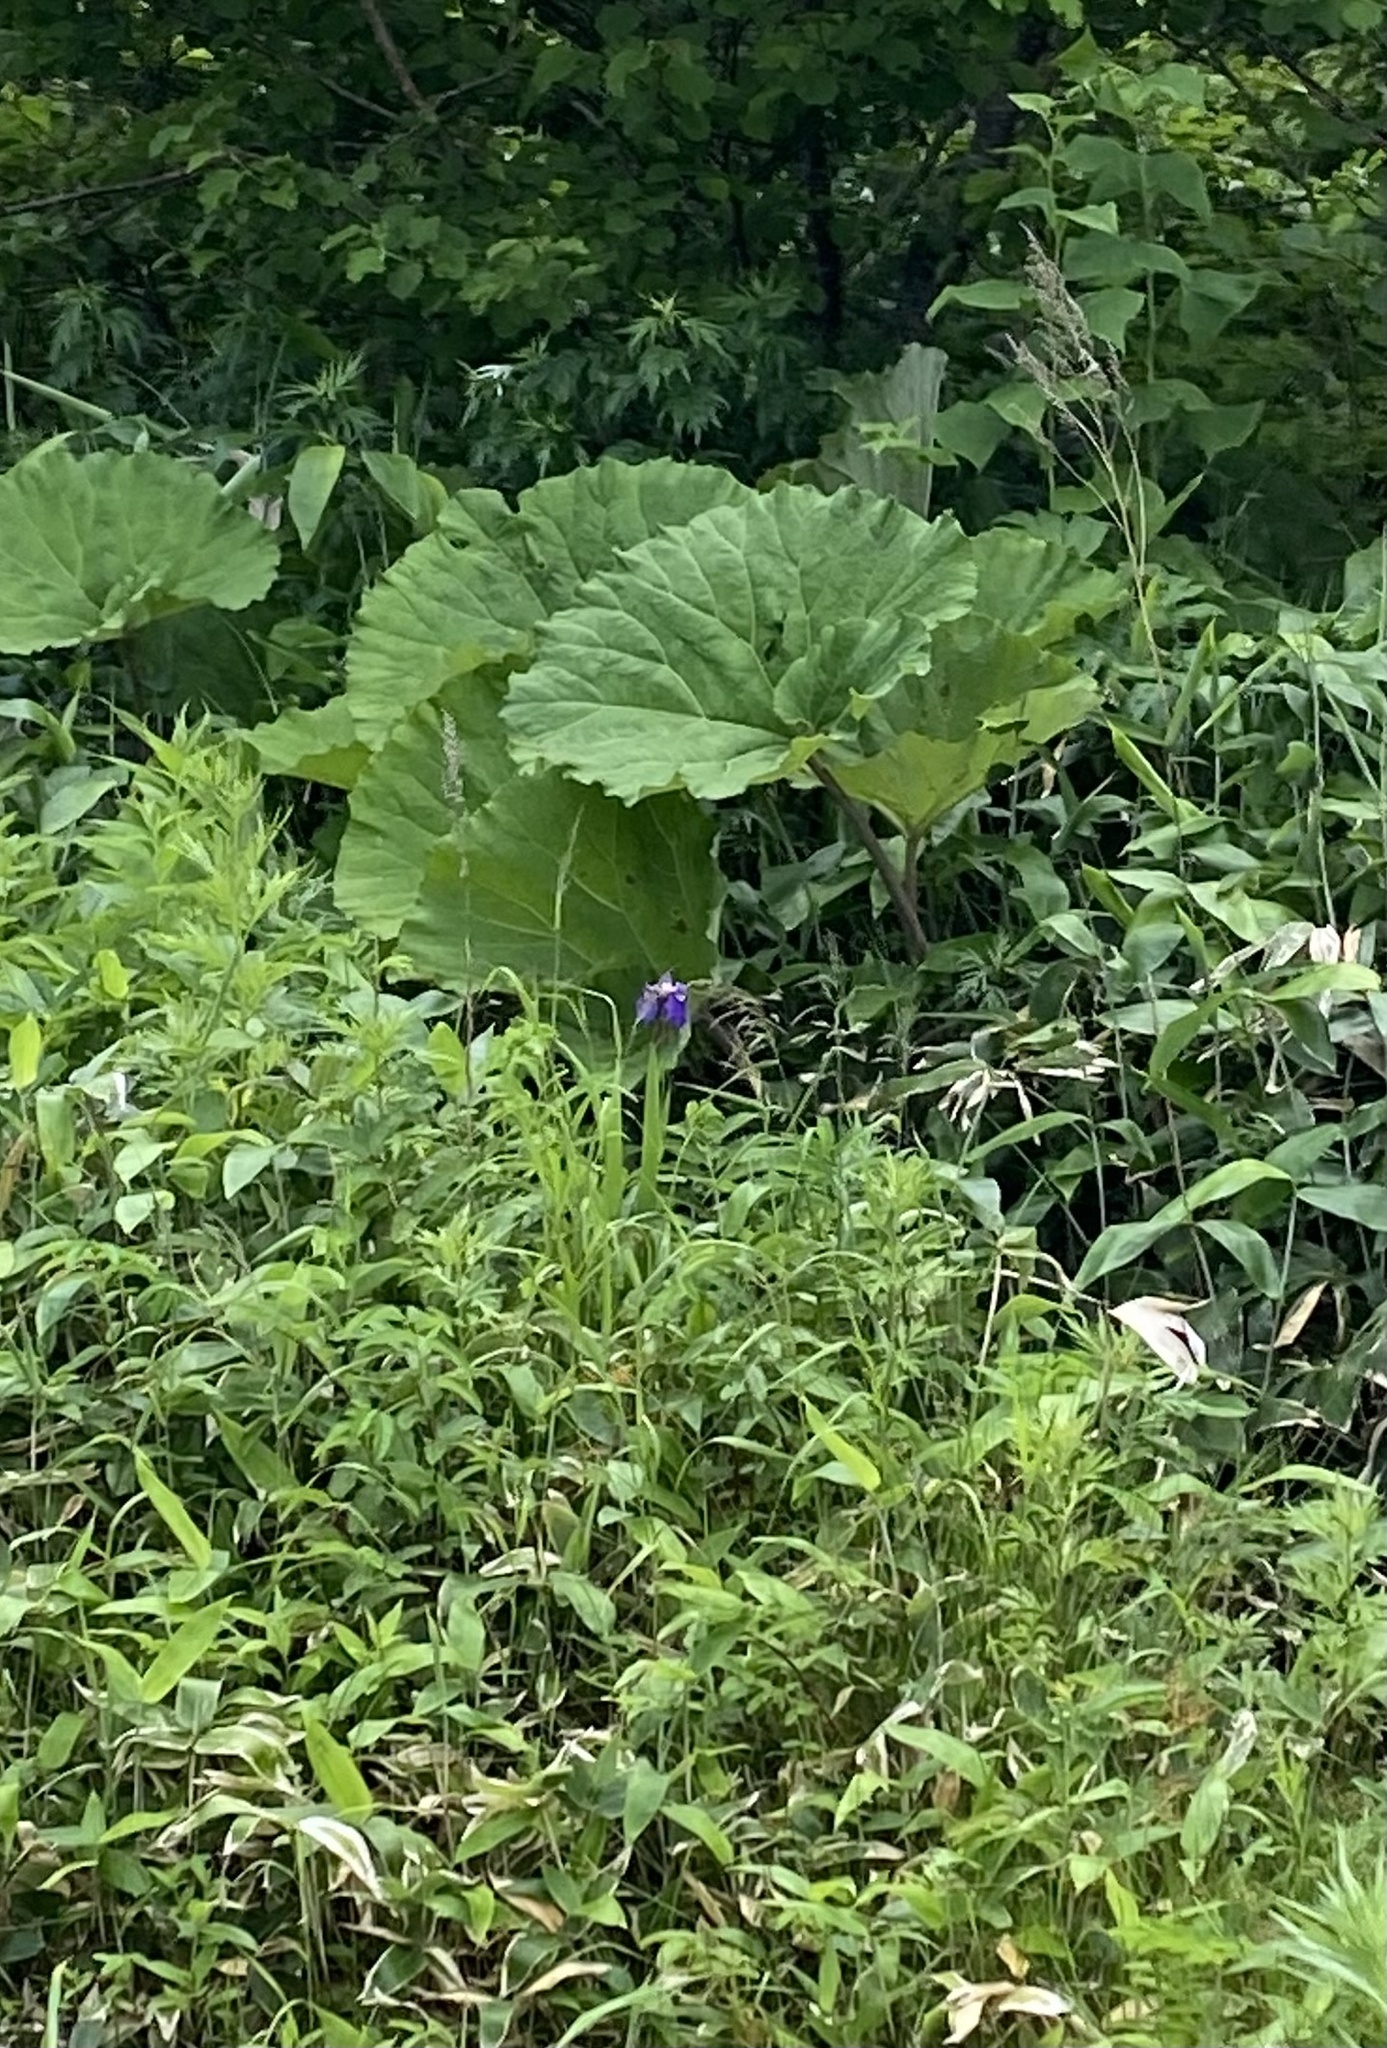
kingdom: Plantae
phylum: Tracheophyta
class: Liliopsida
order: Asparagales
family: Iridaceae
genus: Iris
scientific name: Iris setosa
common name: Arctic blue flag
